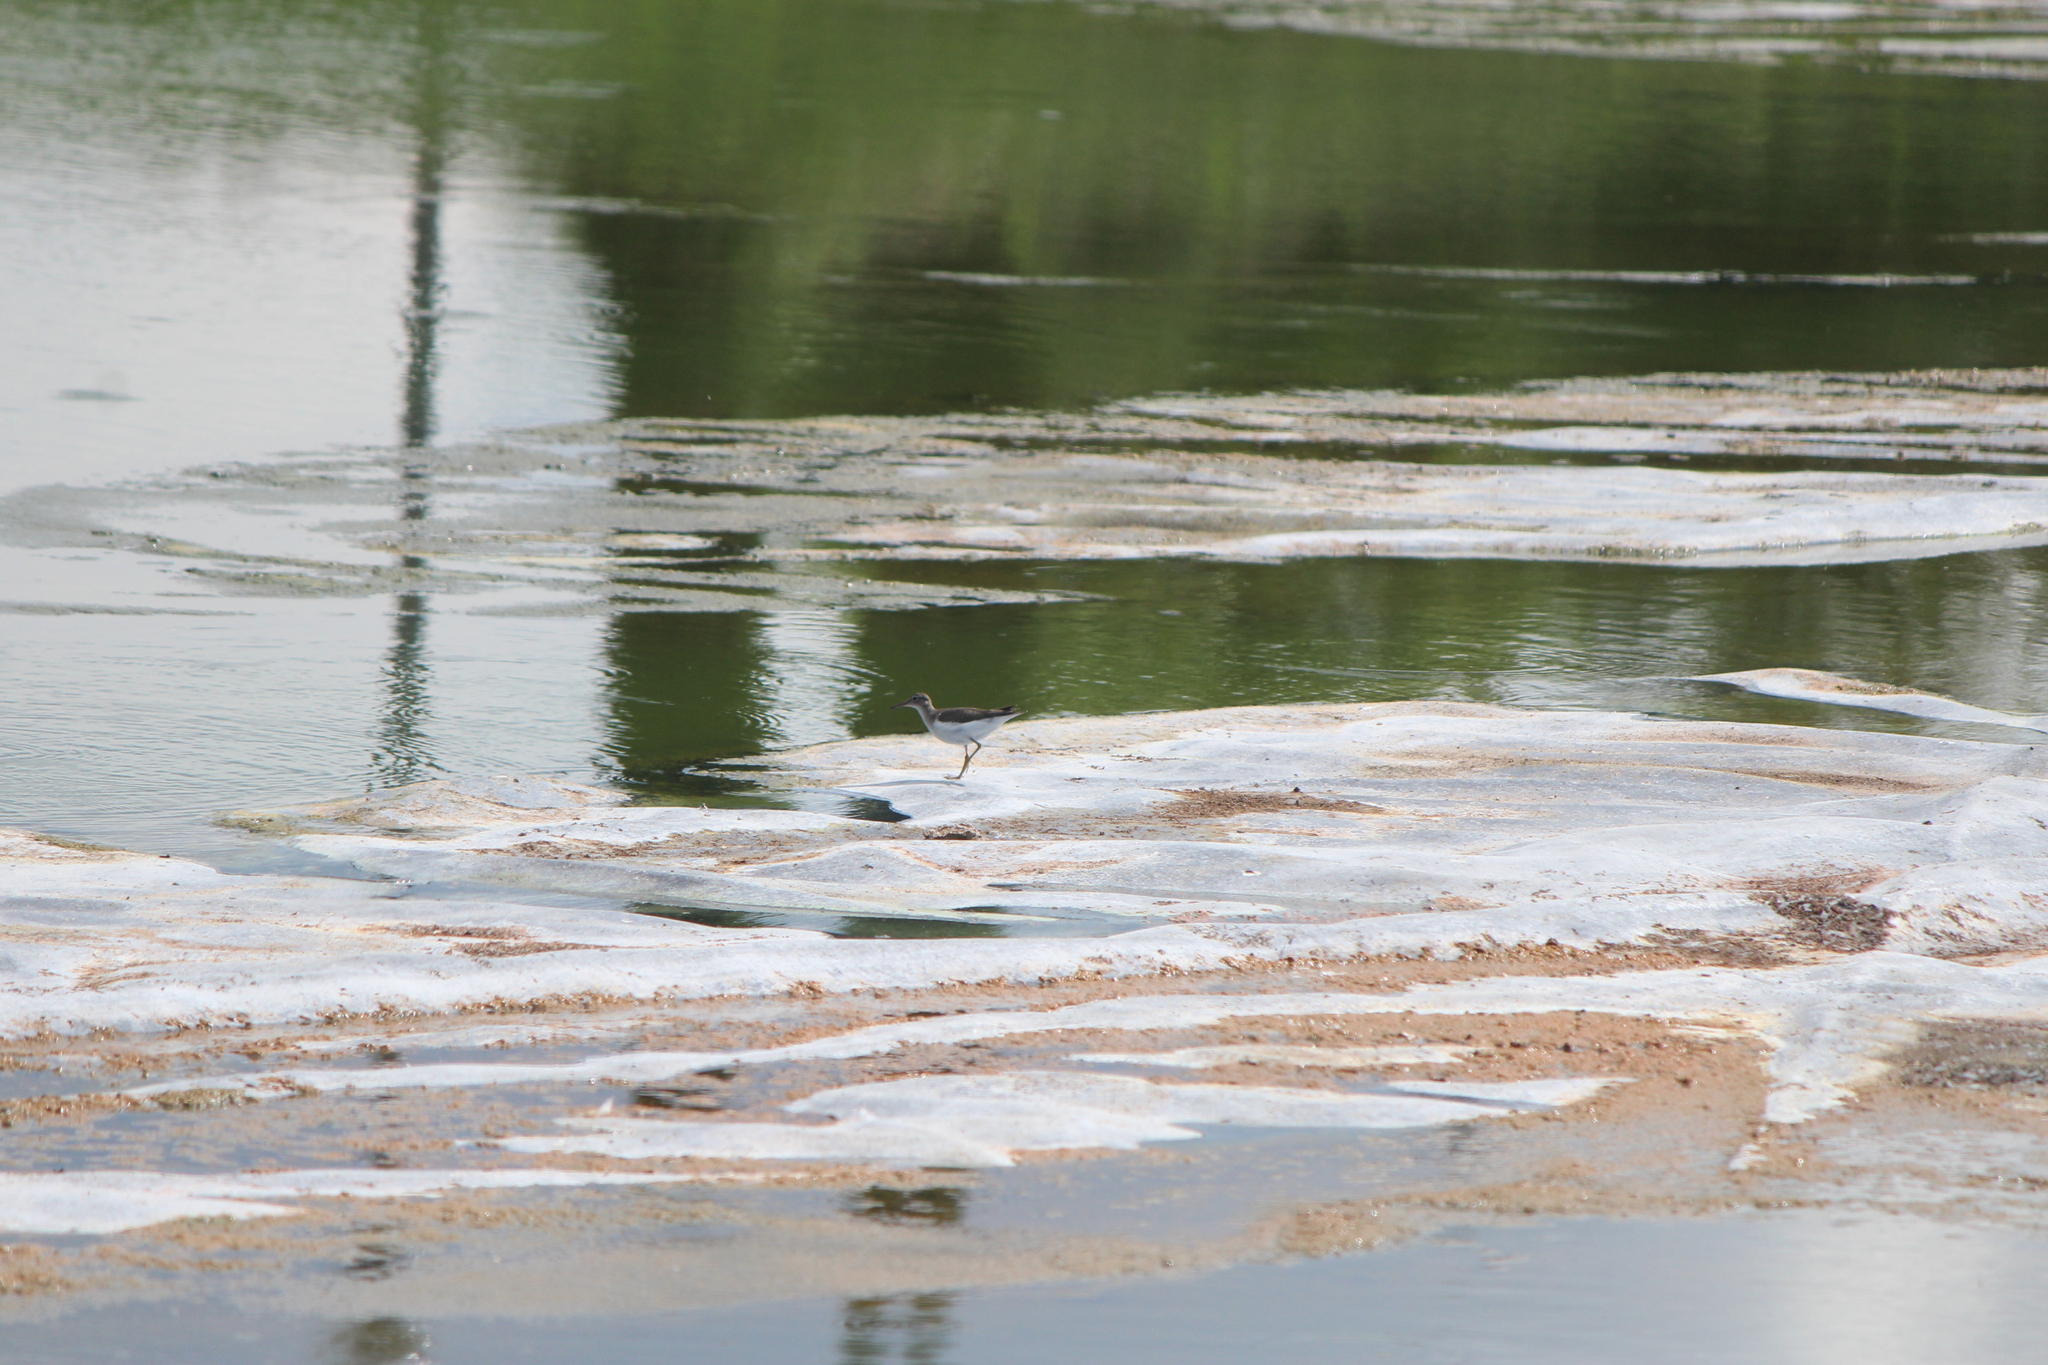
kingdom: Animalia
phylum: Chordata
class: Aves
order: Charadriiformes
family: Scolopacidae
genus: Actitis
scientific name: Actitis macularius
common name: Spotted sandpiper
